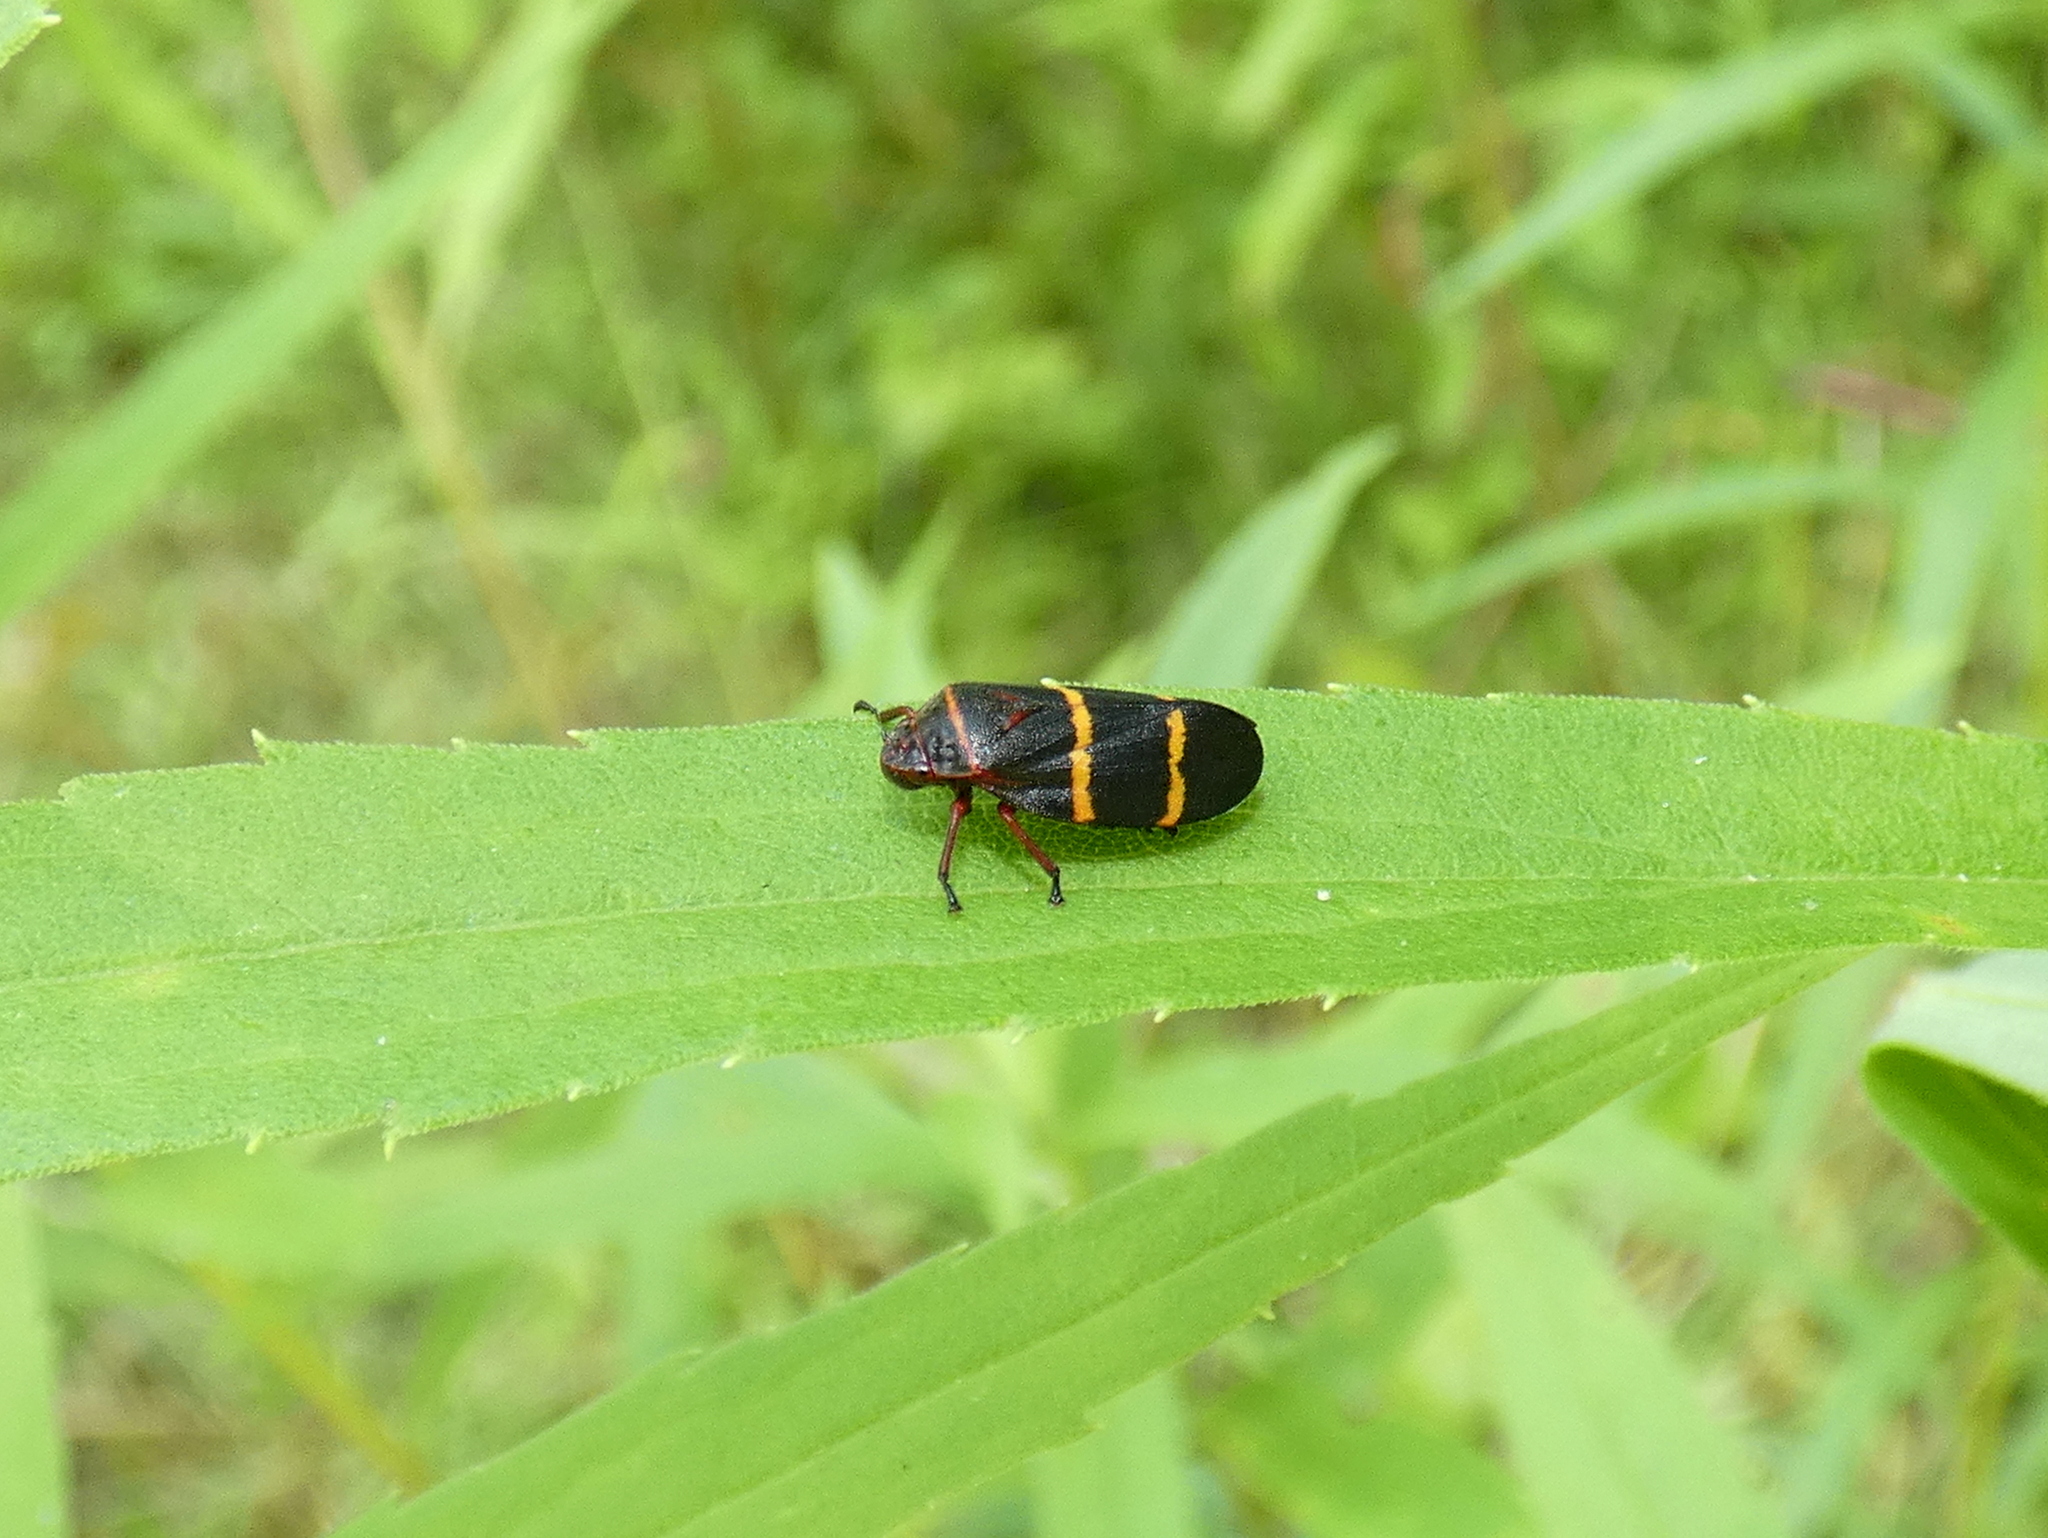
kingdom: Animalia
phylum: Arthropoda
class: Insecta
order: Hemiptera
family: Cercopidae
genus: Prosapia
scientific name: Prosapia bicincta
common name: Twolined spittlebug
